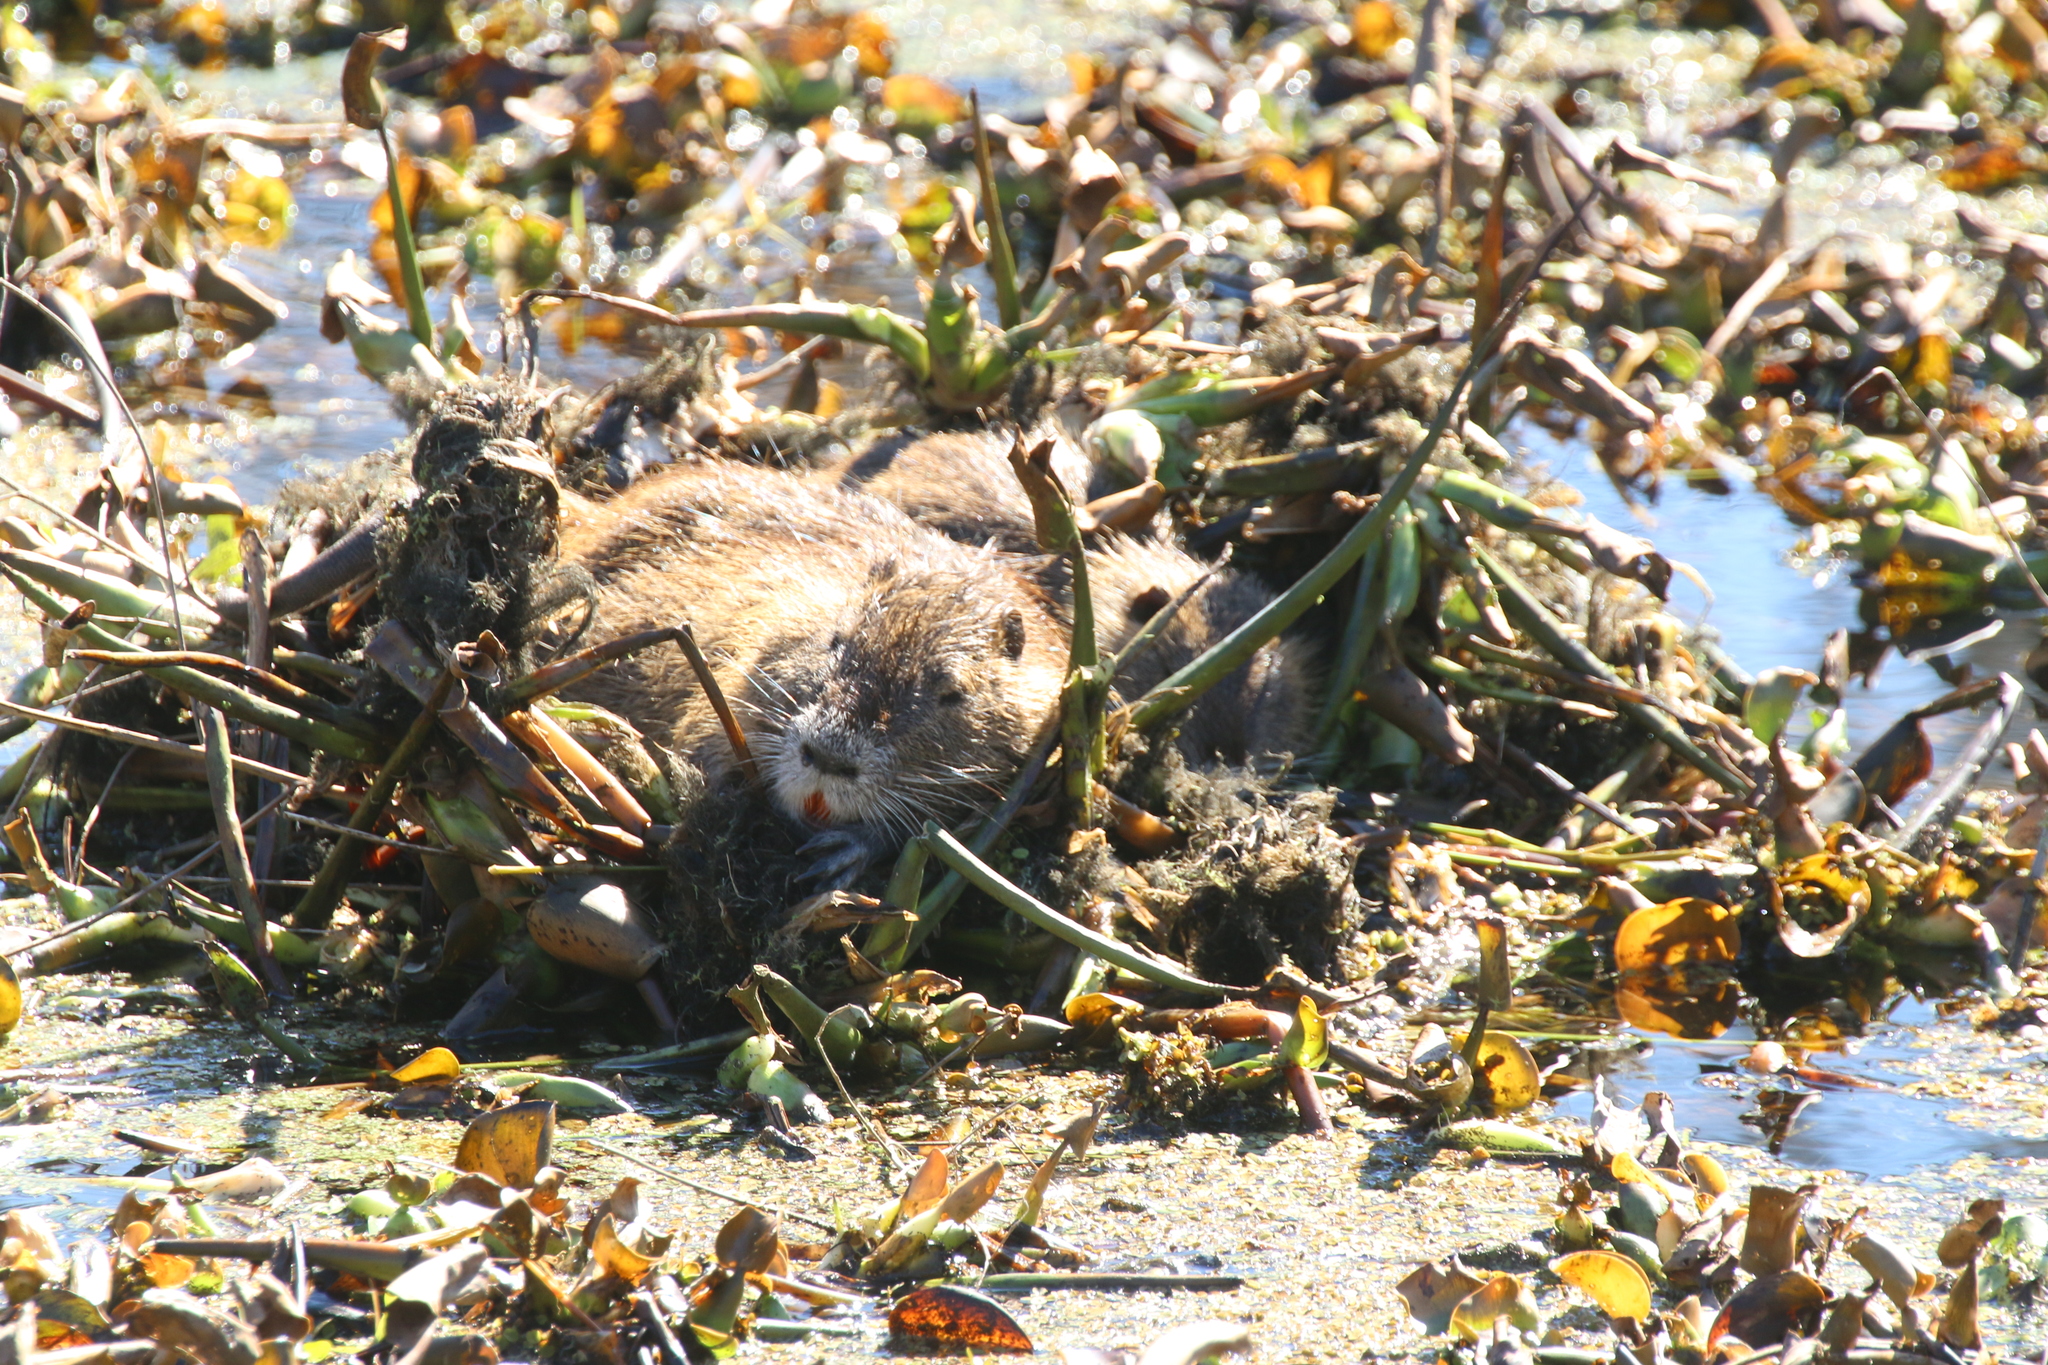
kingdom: Animalia
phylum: Chordata
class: Mammalia
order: Rodentia
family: Myocastoridae
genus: Myocastor
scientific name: Myocastor coypus
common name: Coypu
